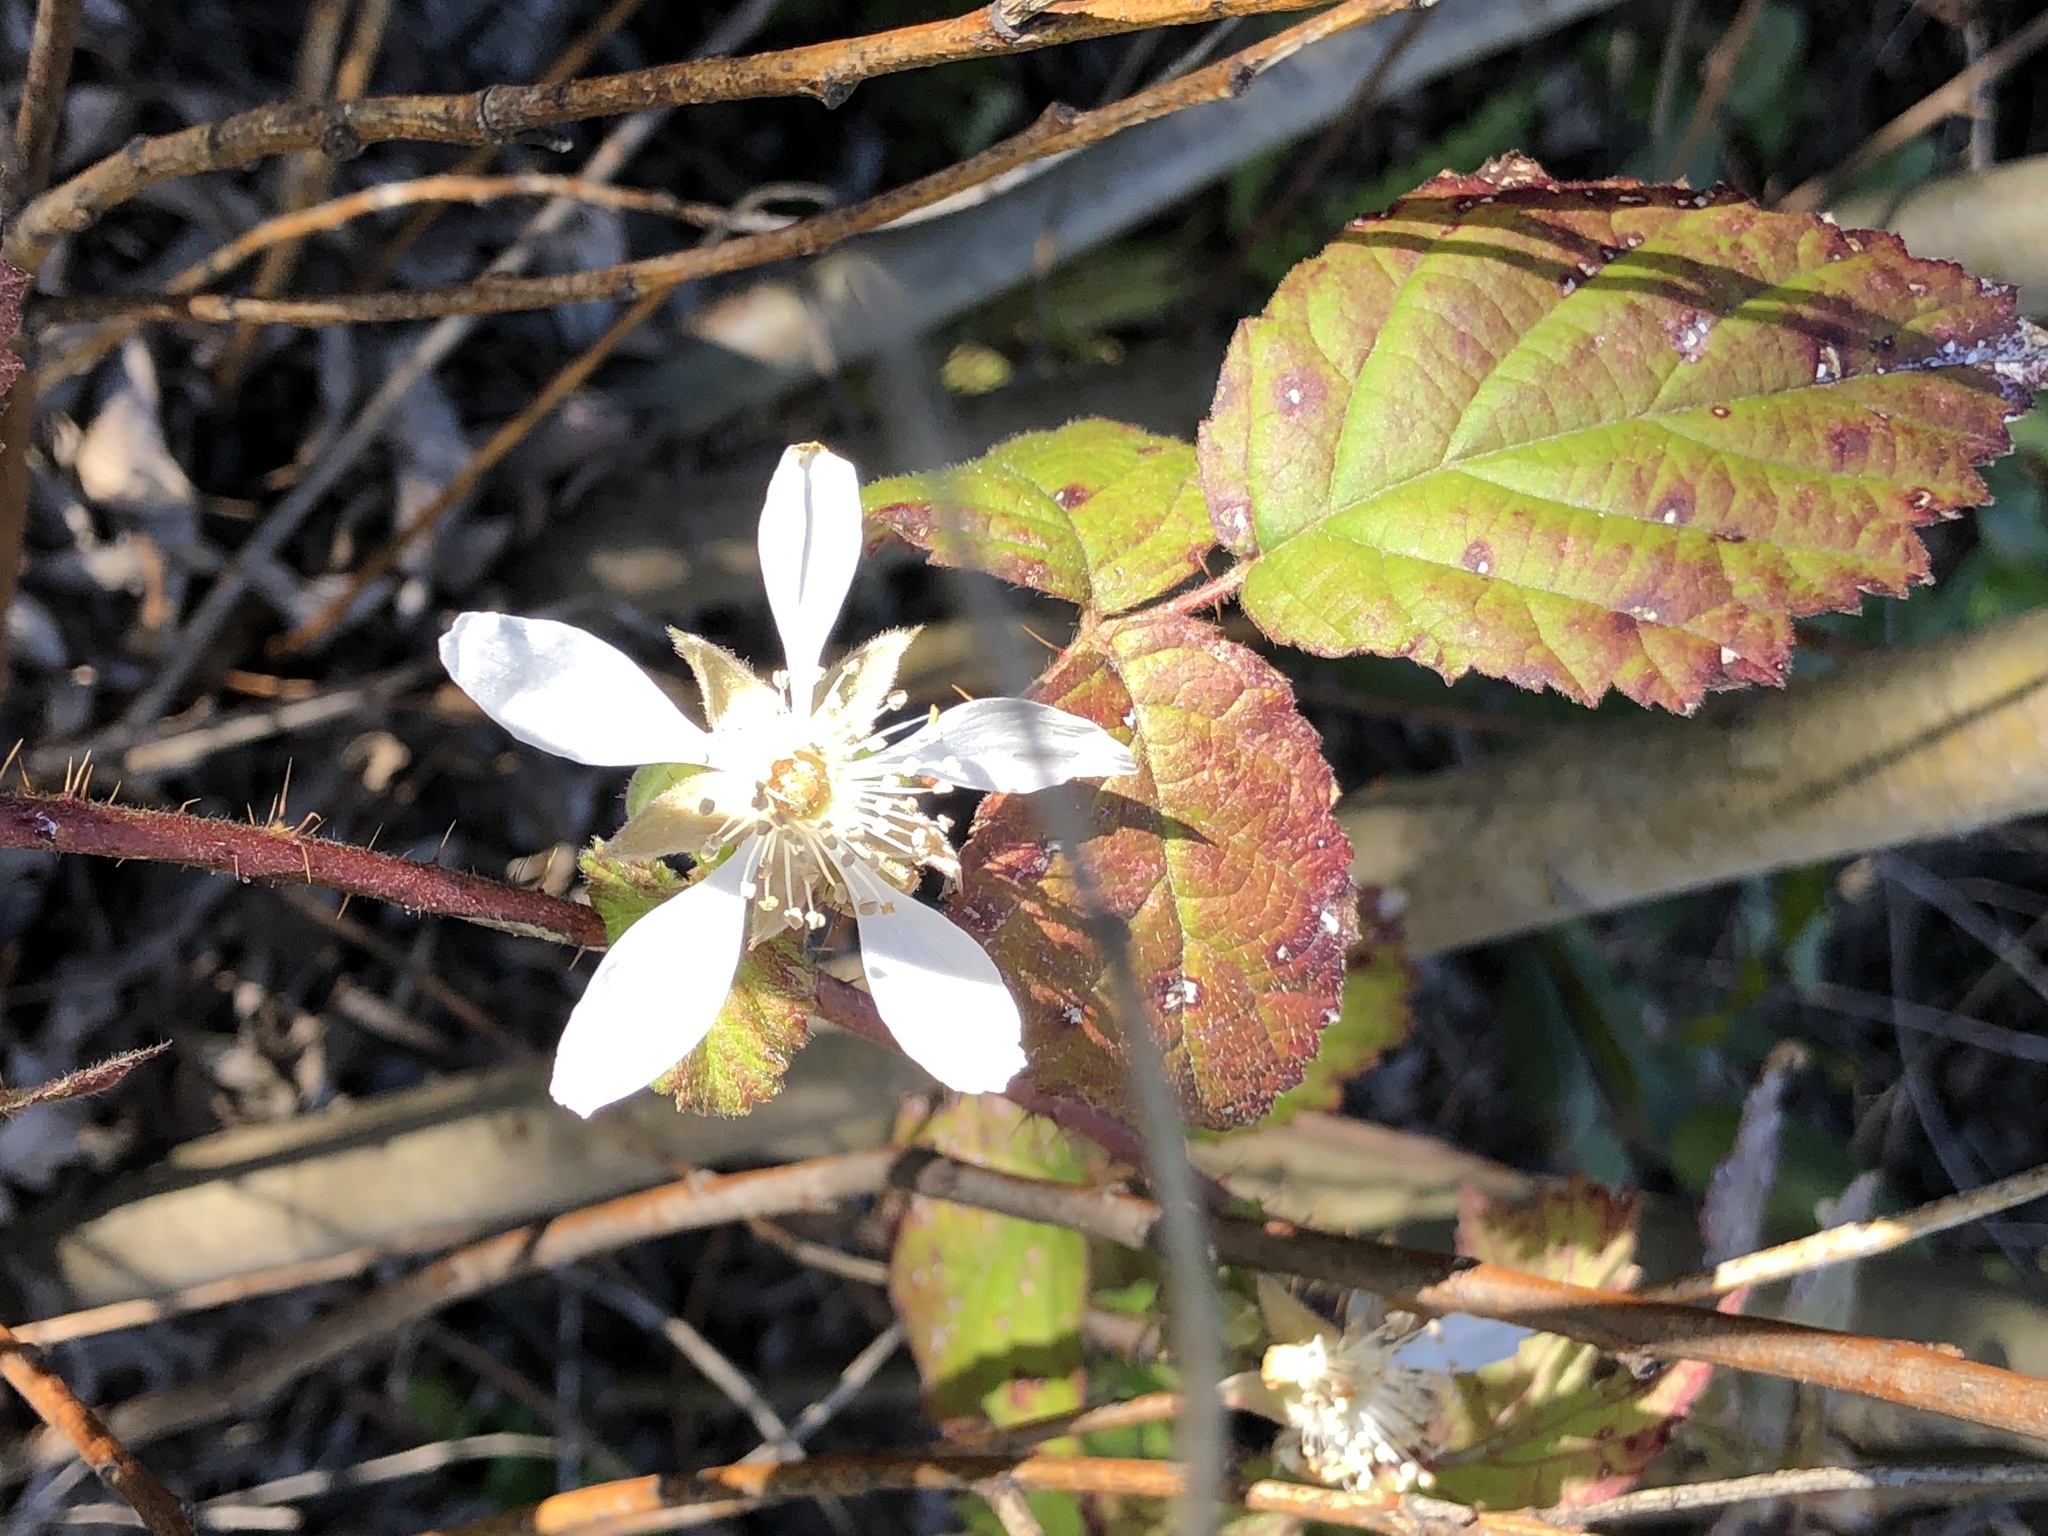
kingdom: Plantae
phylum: Tracheophyta
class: Magnoliopsida
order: Rosales
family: Rosaceae
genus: Rubus
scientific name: Rubus ursinus
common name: Pacific blackberry
